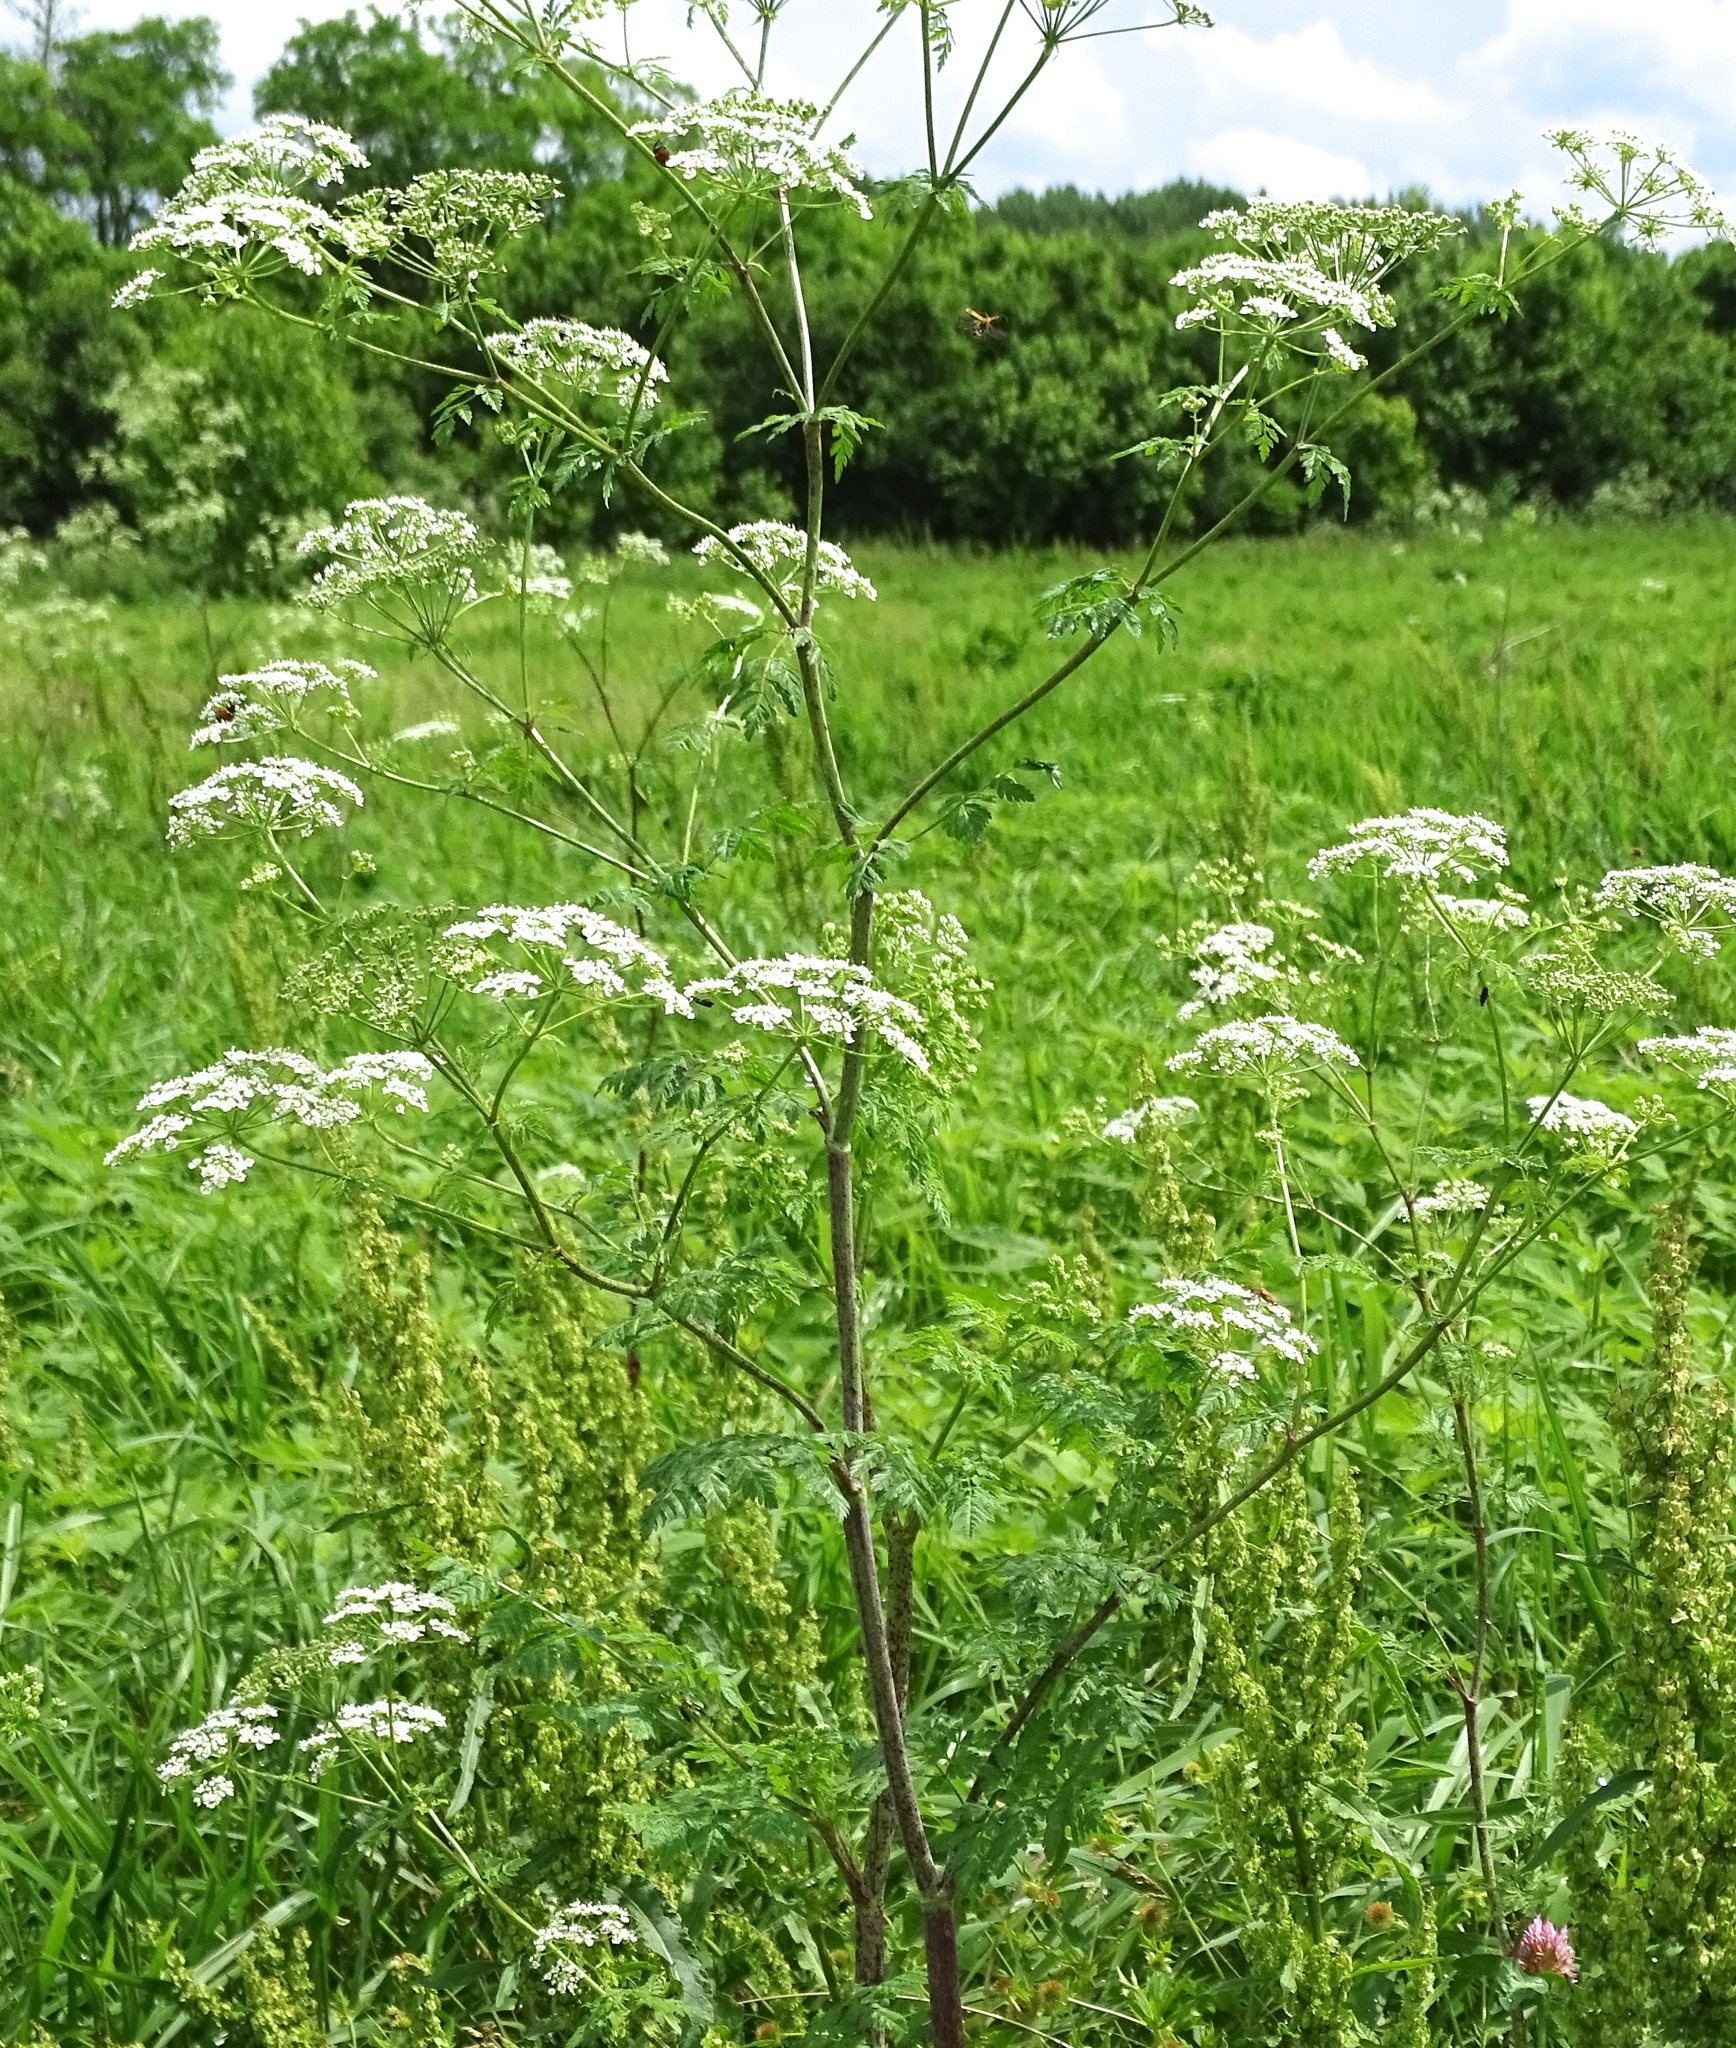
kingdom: Plantae
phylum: Tracheophyta
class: Magnoliopsida
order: Apiales
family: Apiaceae
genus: Conium
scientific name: Conium maculatum
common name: Hemlock
